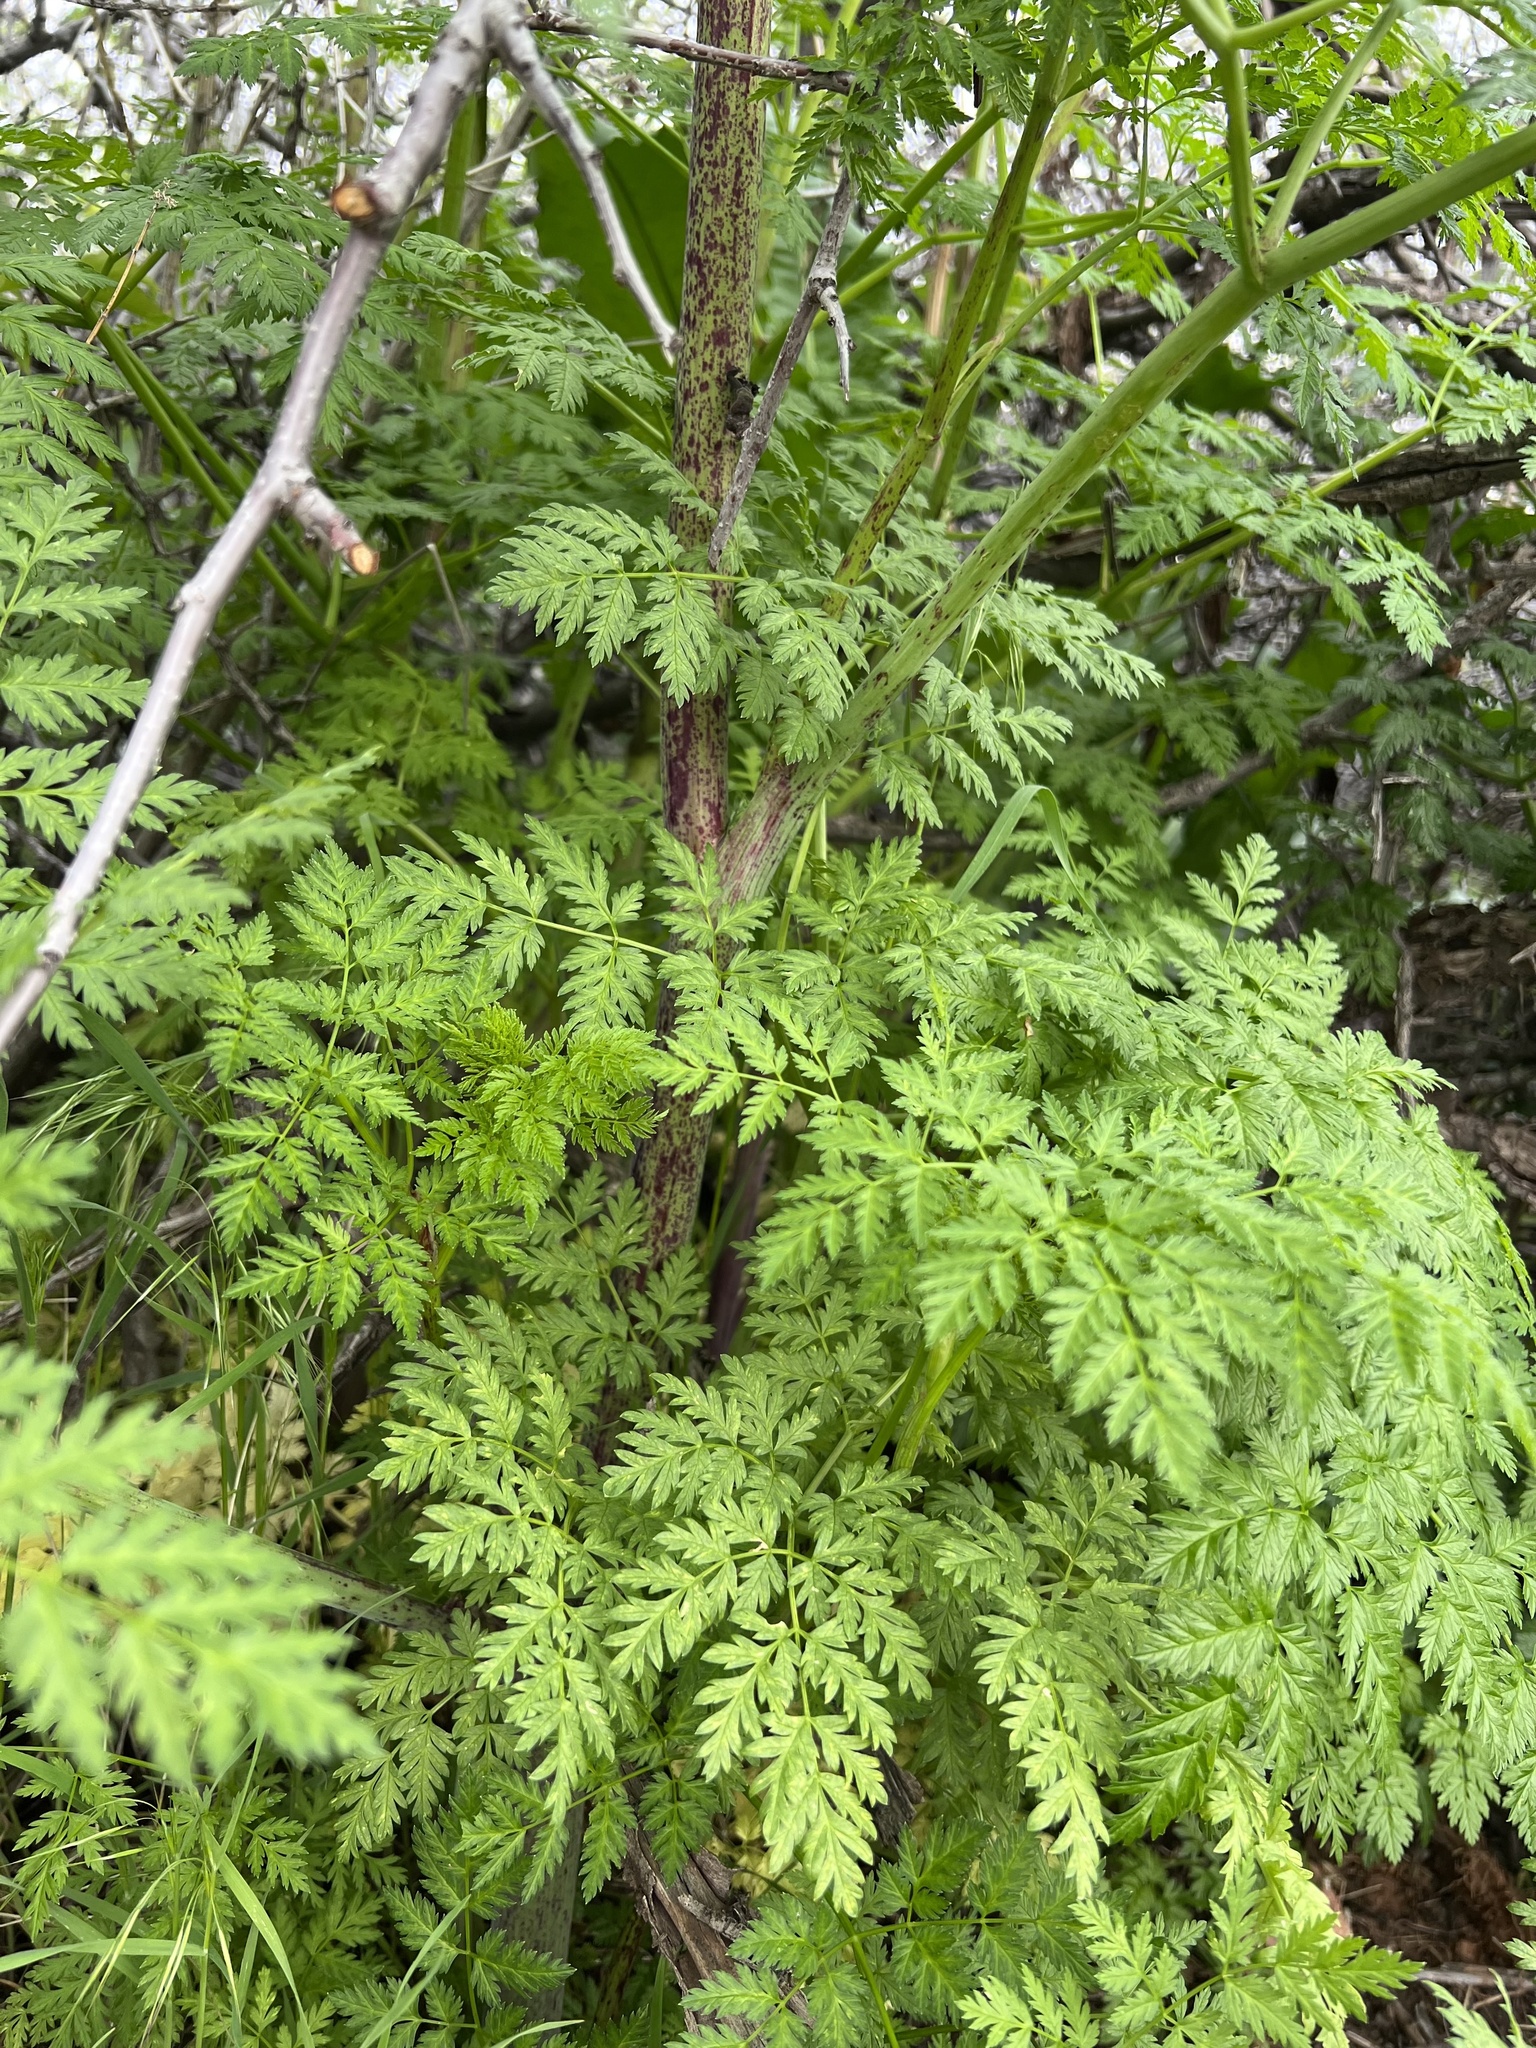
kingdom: Plantae
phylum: Tracheophyta
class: Magnoliopsida
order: Apiales
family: Apiaceae
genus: Conium
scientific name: Conium maculatum
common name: Hemlock
